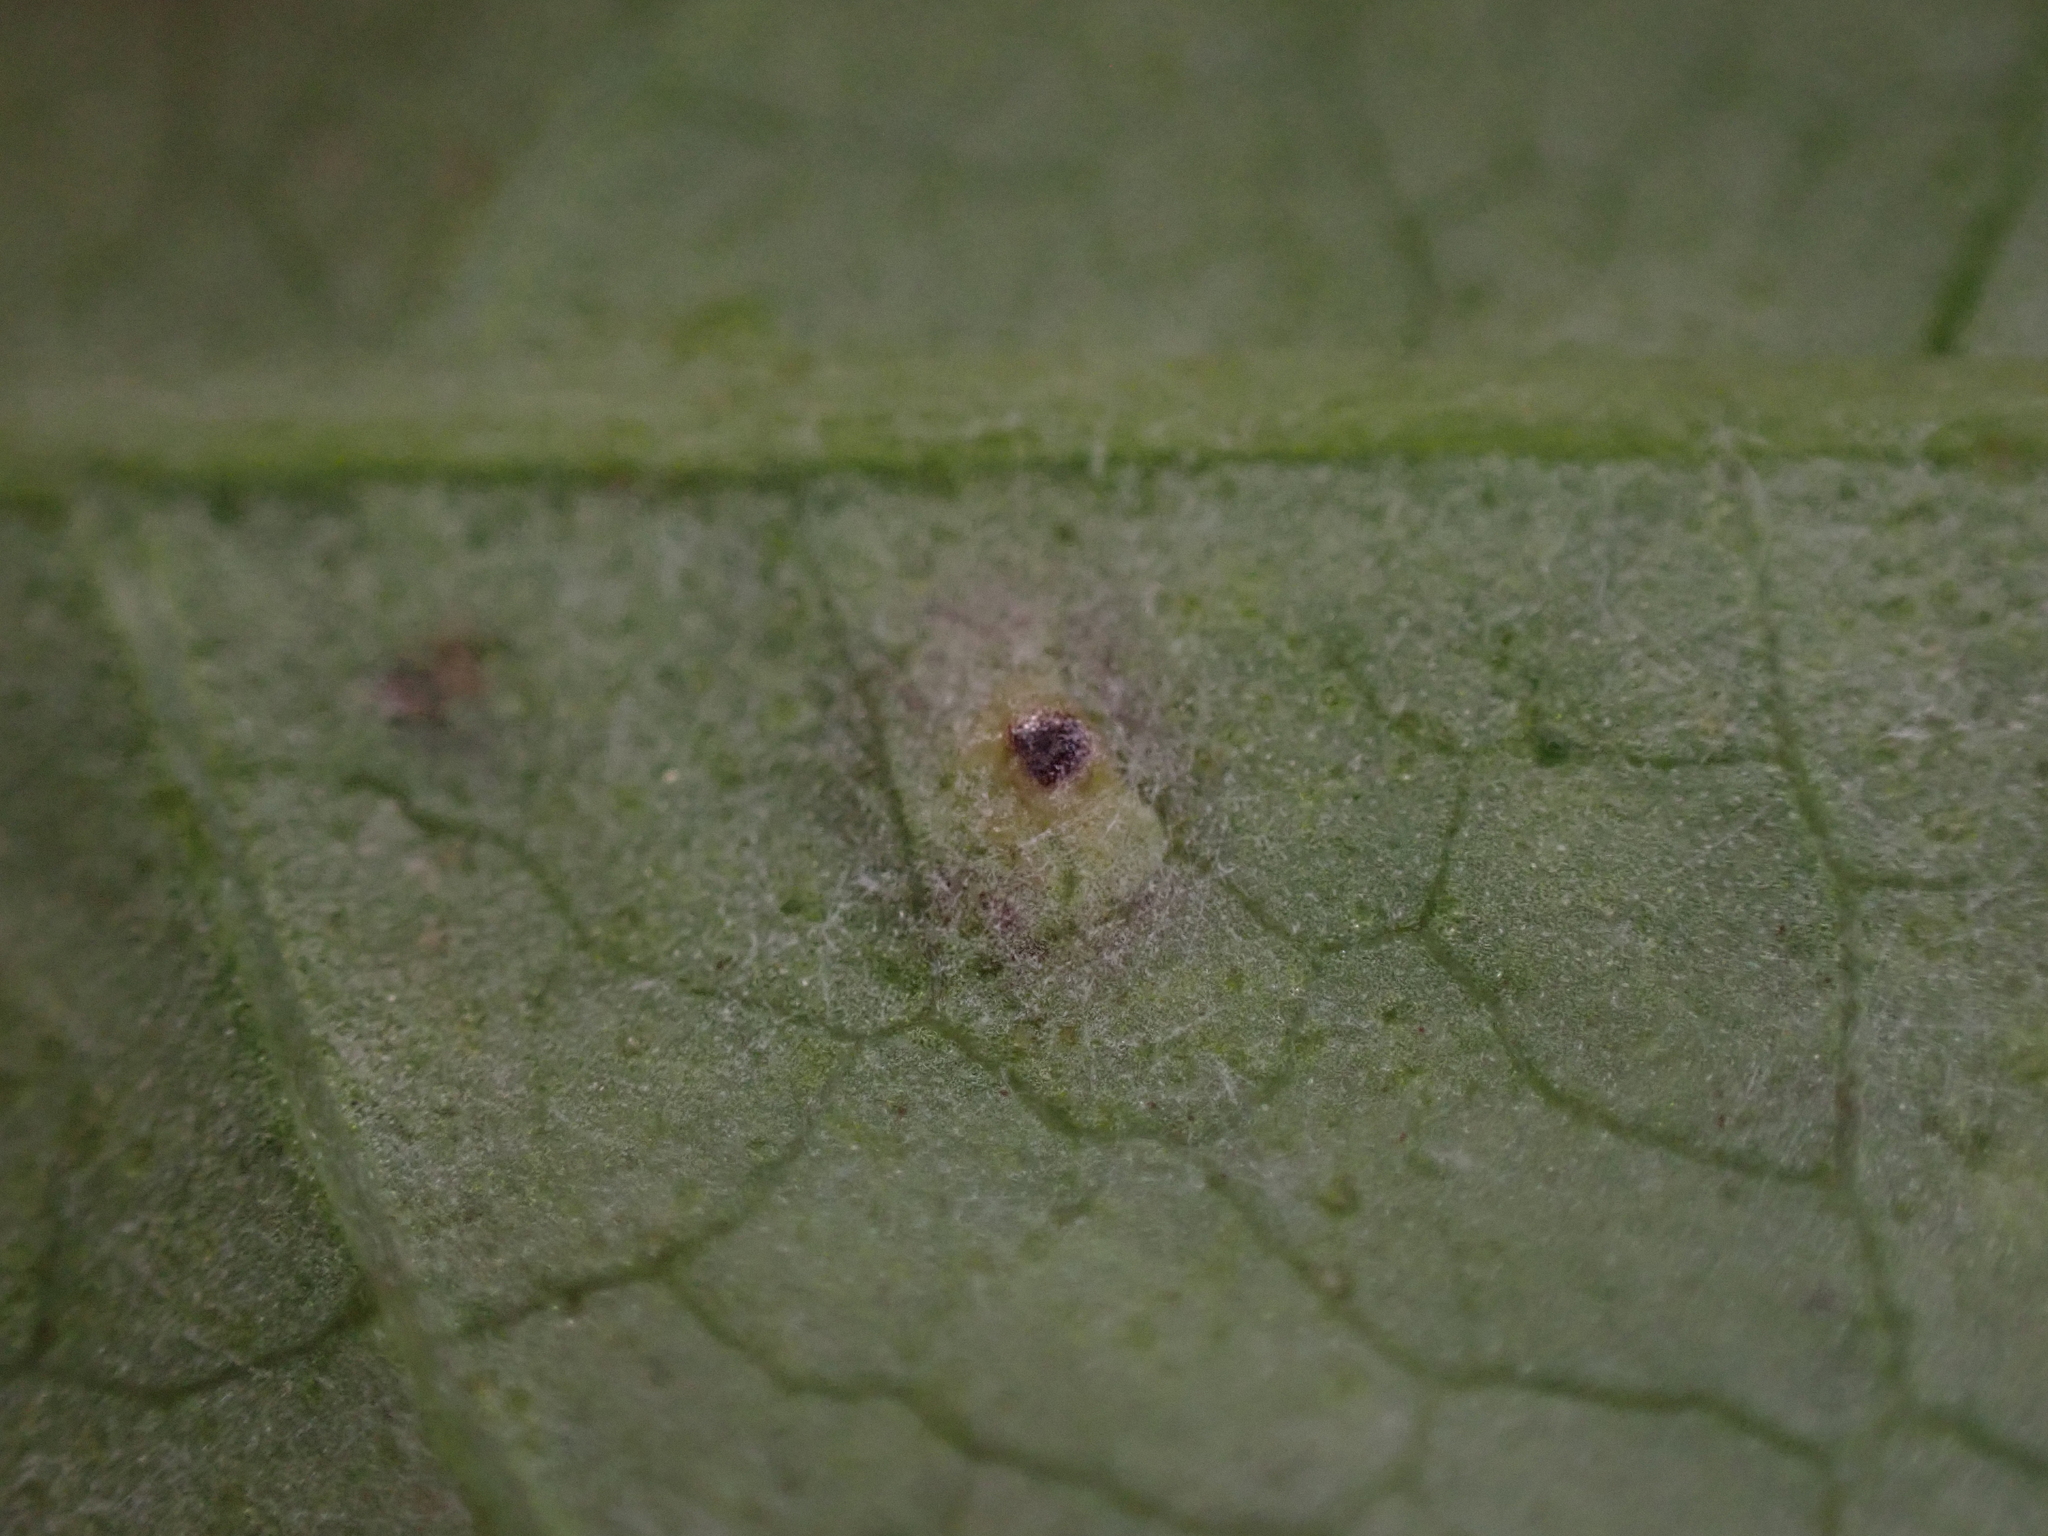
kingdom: Fungi
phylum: Basidiomycota
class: Pucciniomycetes
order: Pucciniales
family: Pucciniaceae
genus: Puccinia
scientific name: Puccinia convolvuli
